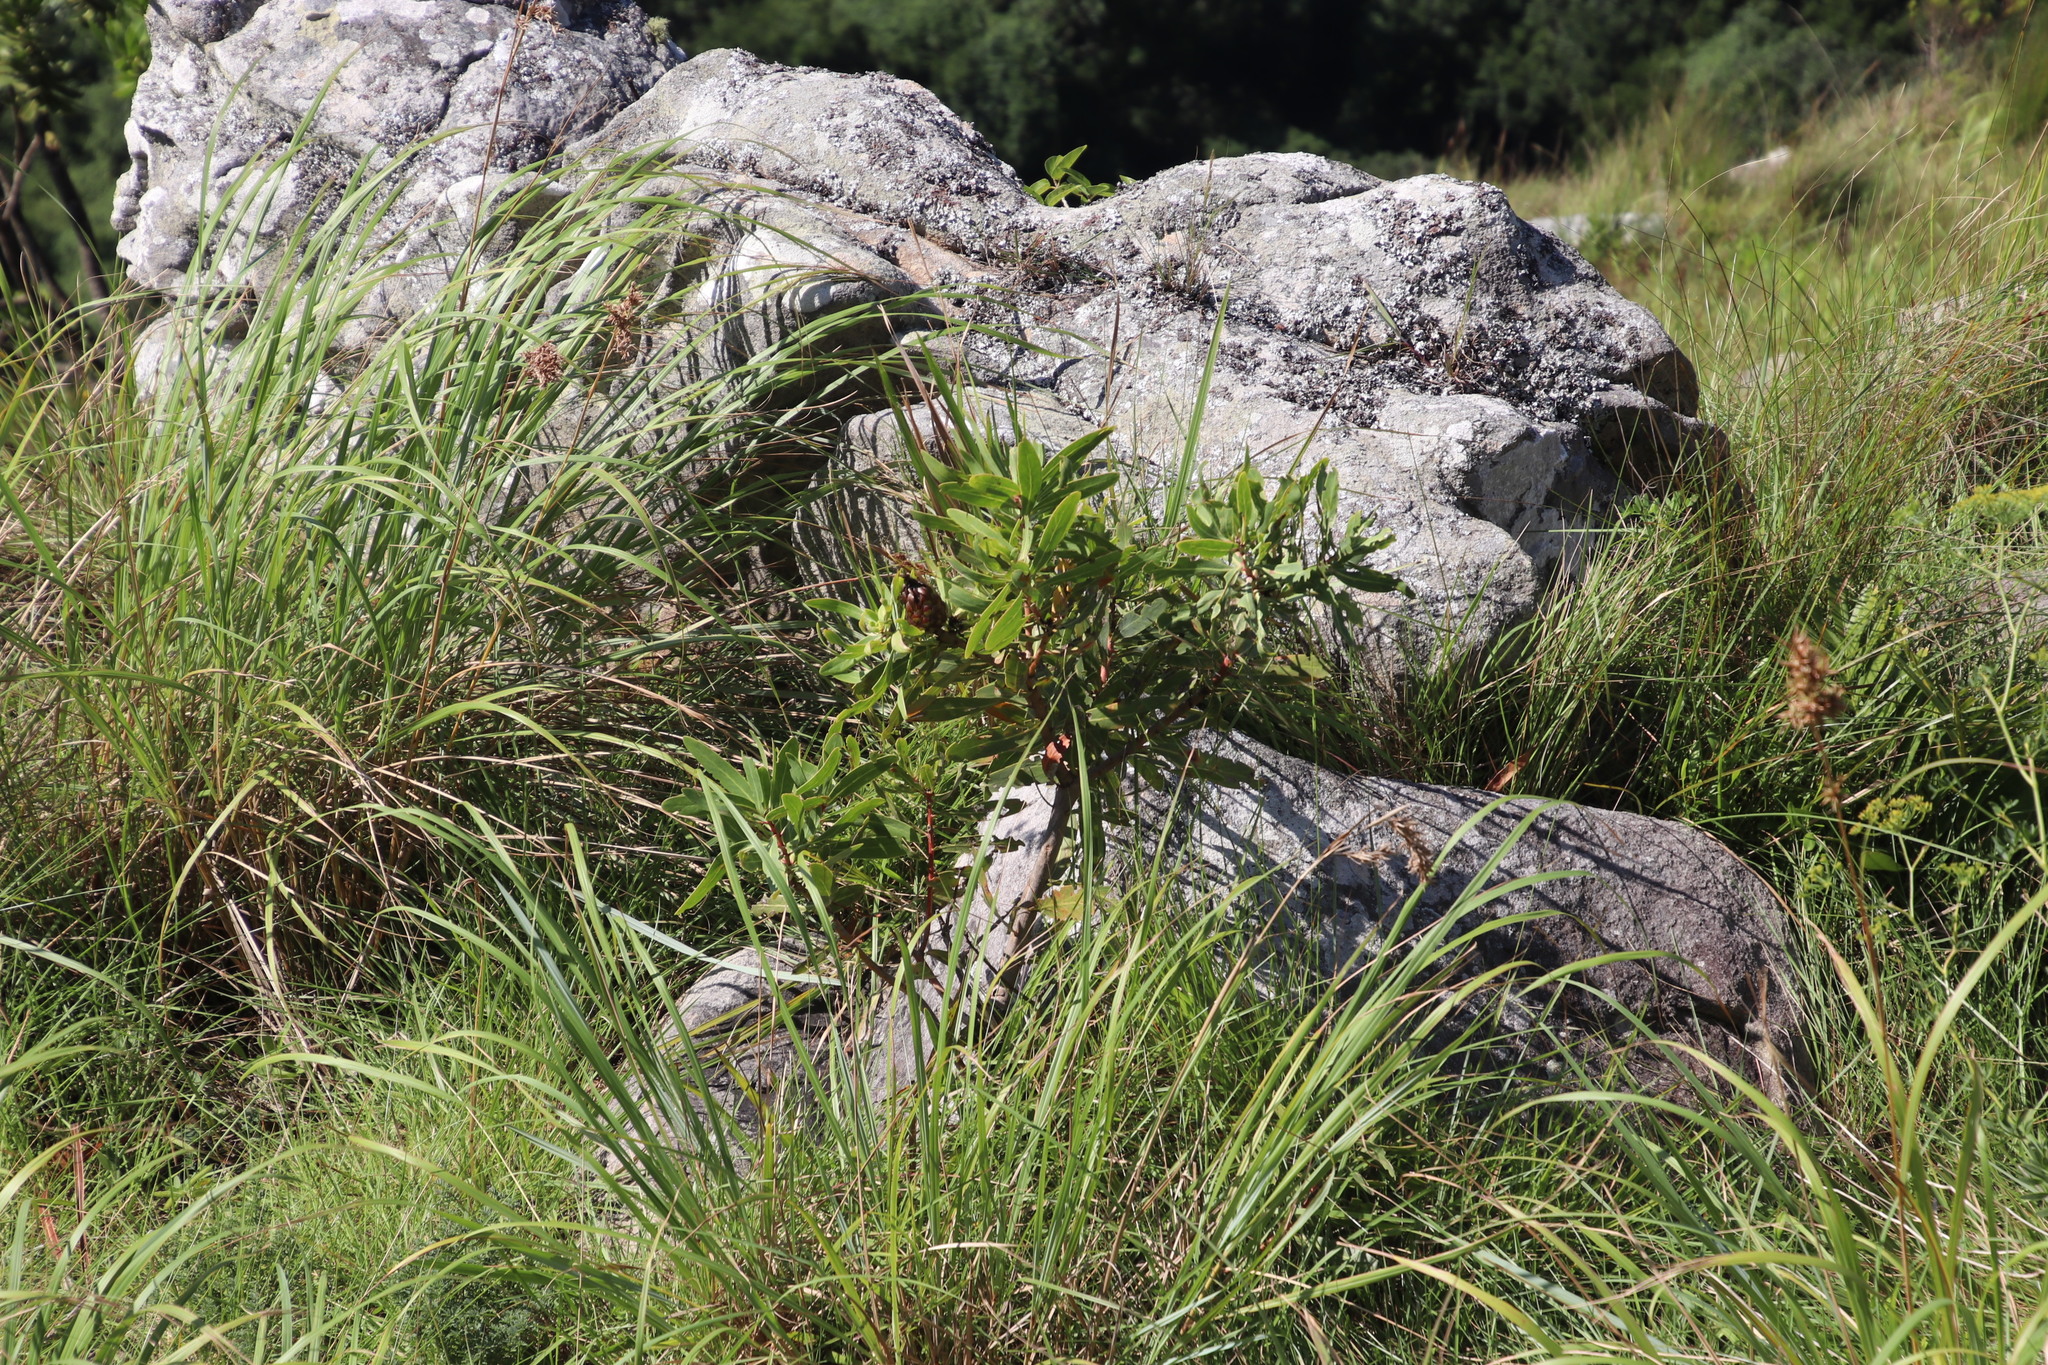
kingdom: Plantae
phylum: Tracheophyta
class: Magnoliopsida
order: Proteales
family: Proteaceae
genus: Protea
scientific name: Protea caffra
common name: Common sugarbush
